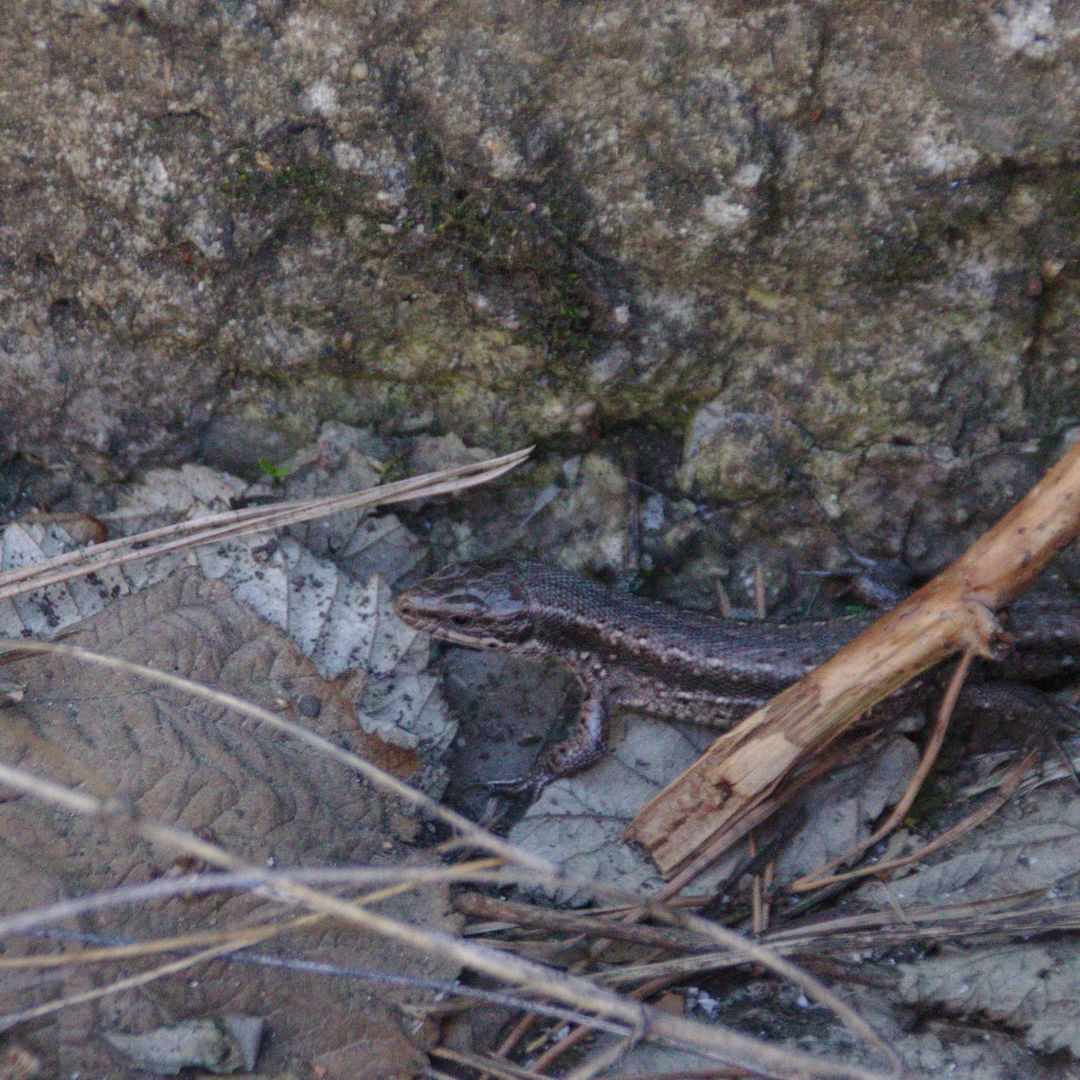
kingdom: Animalia
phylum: Chordata
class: Squamata
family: Lacertidae
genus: Zootoca
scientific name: Zootoca vivipara
